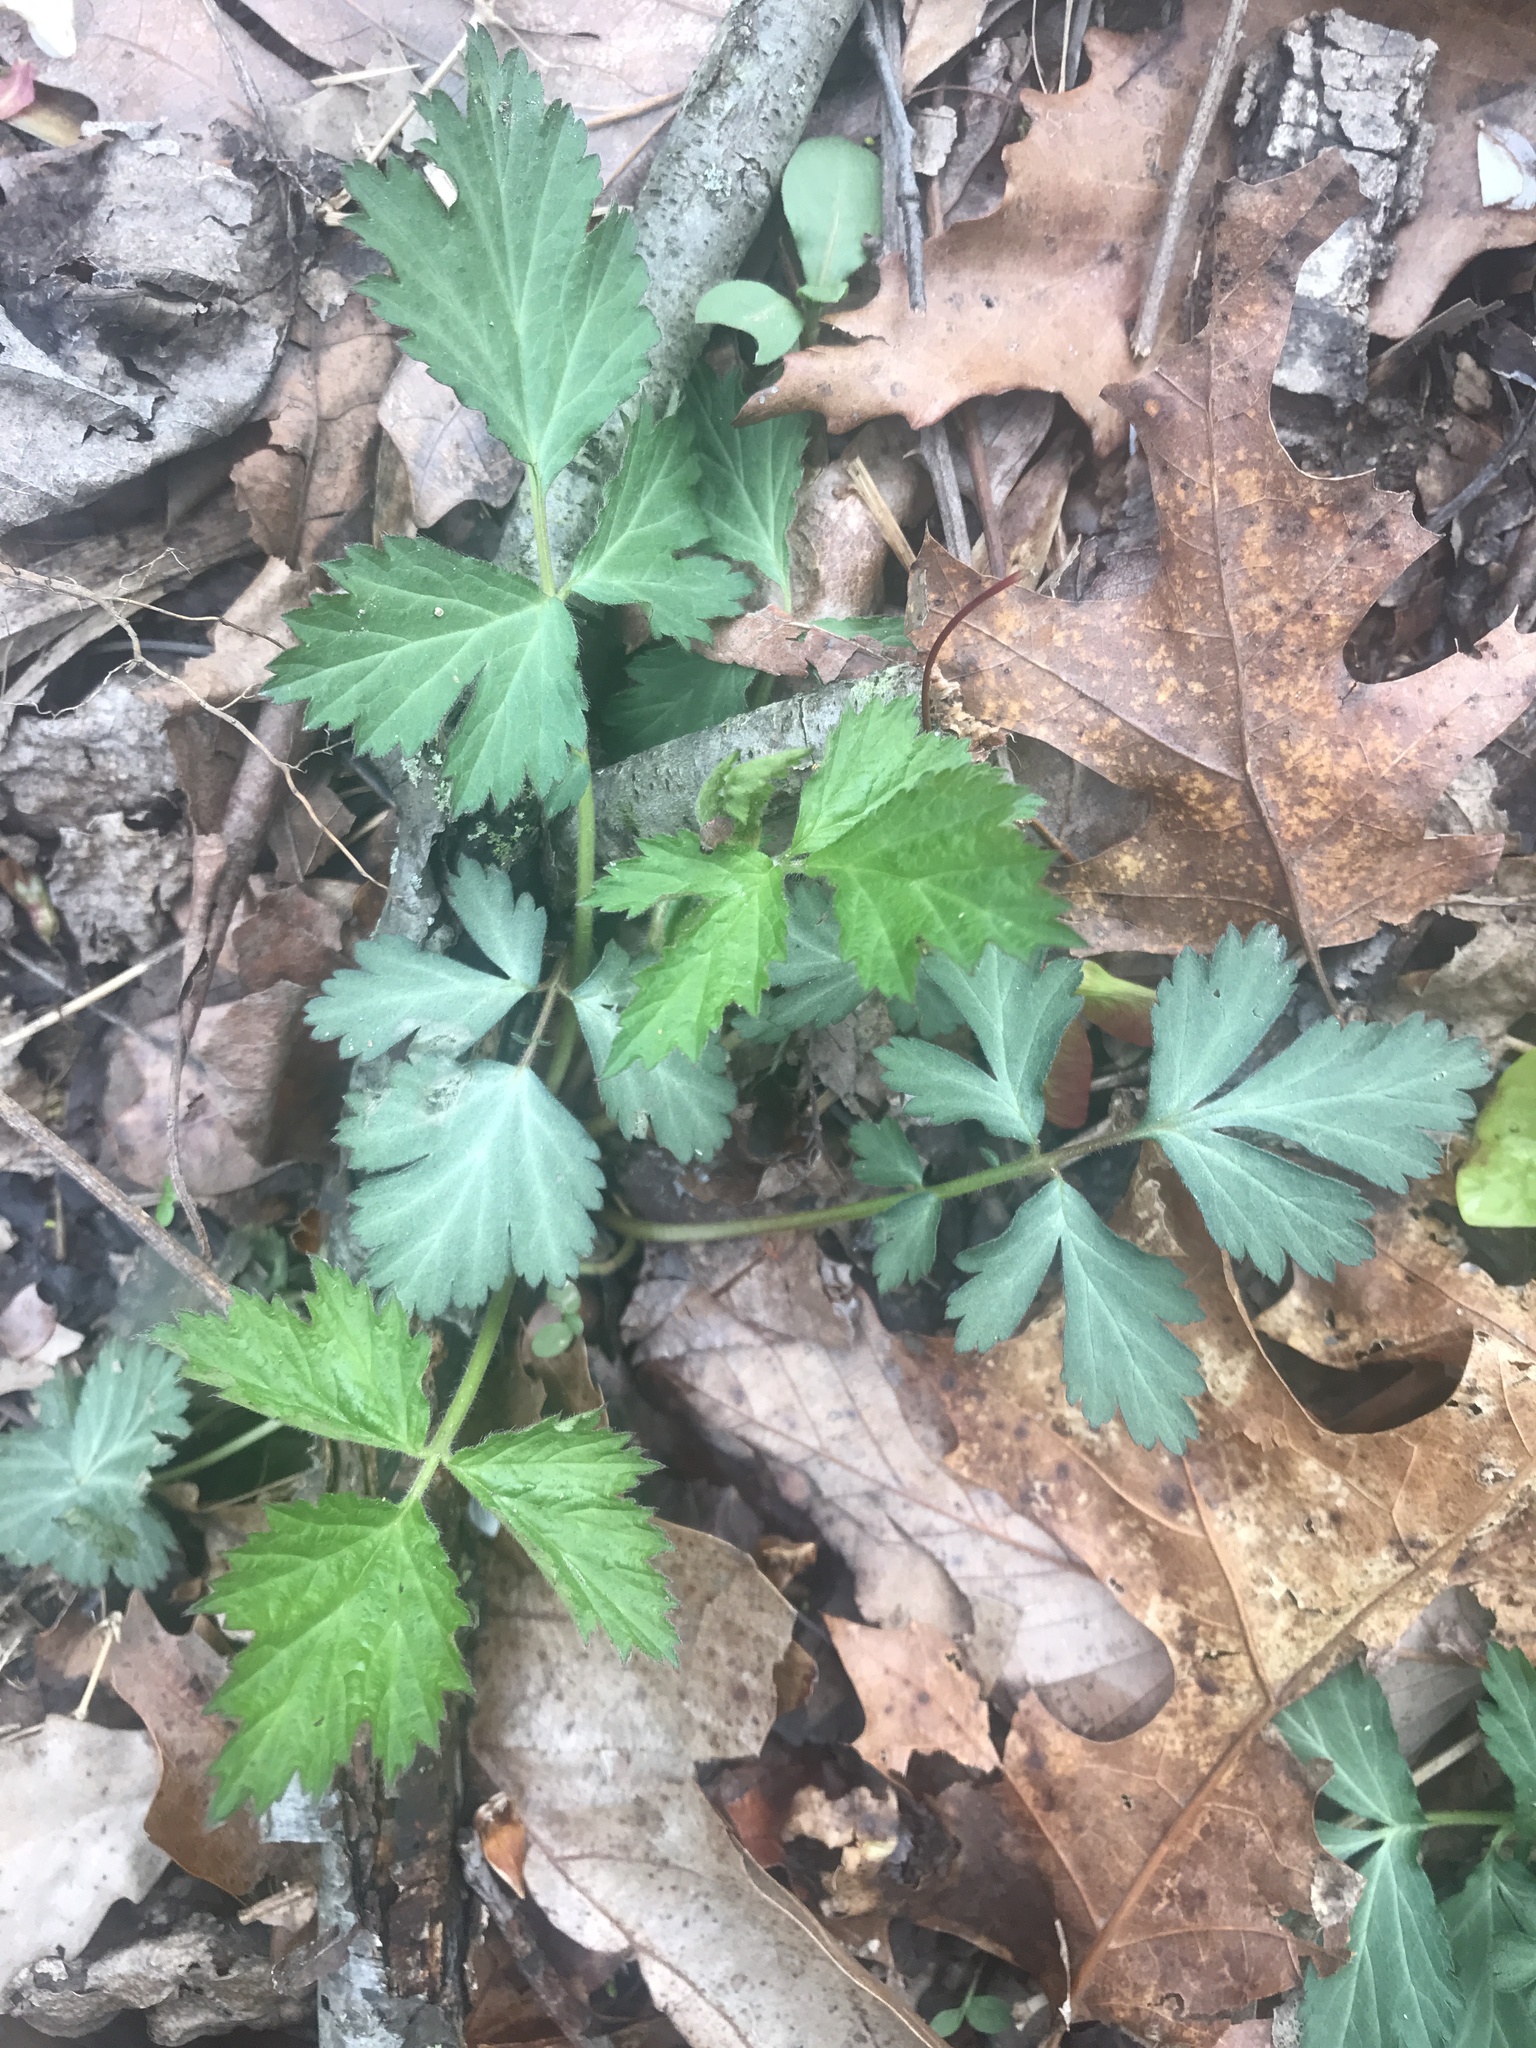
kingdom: Plantae
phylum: Tracheophyta
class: Magnoliopsida
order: Rosales
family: Rosaceae
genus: Geum
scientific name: Geum canadense
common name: White avens
